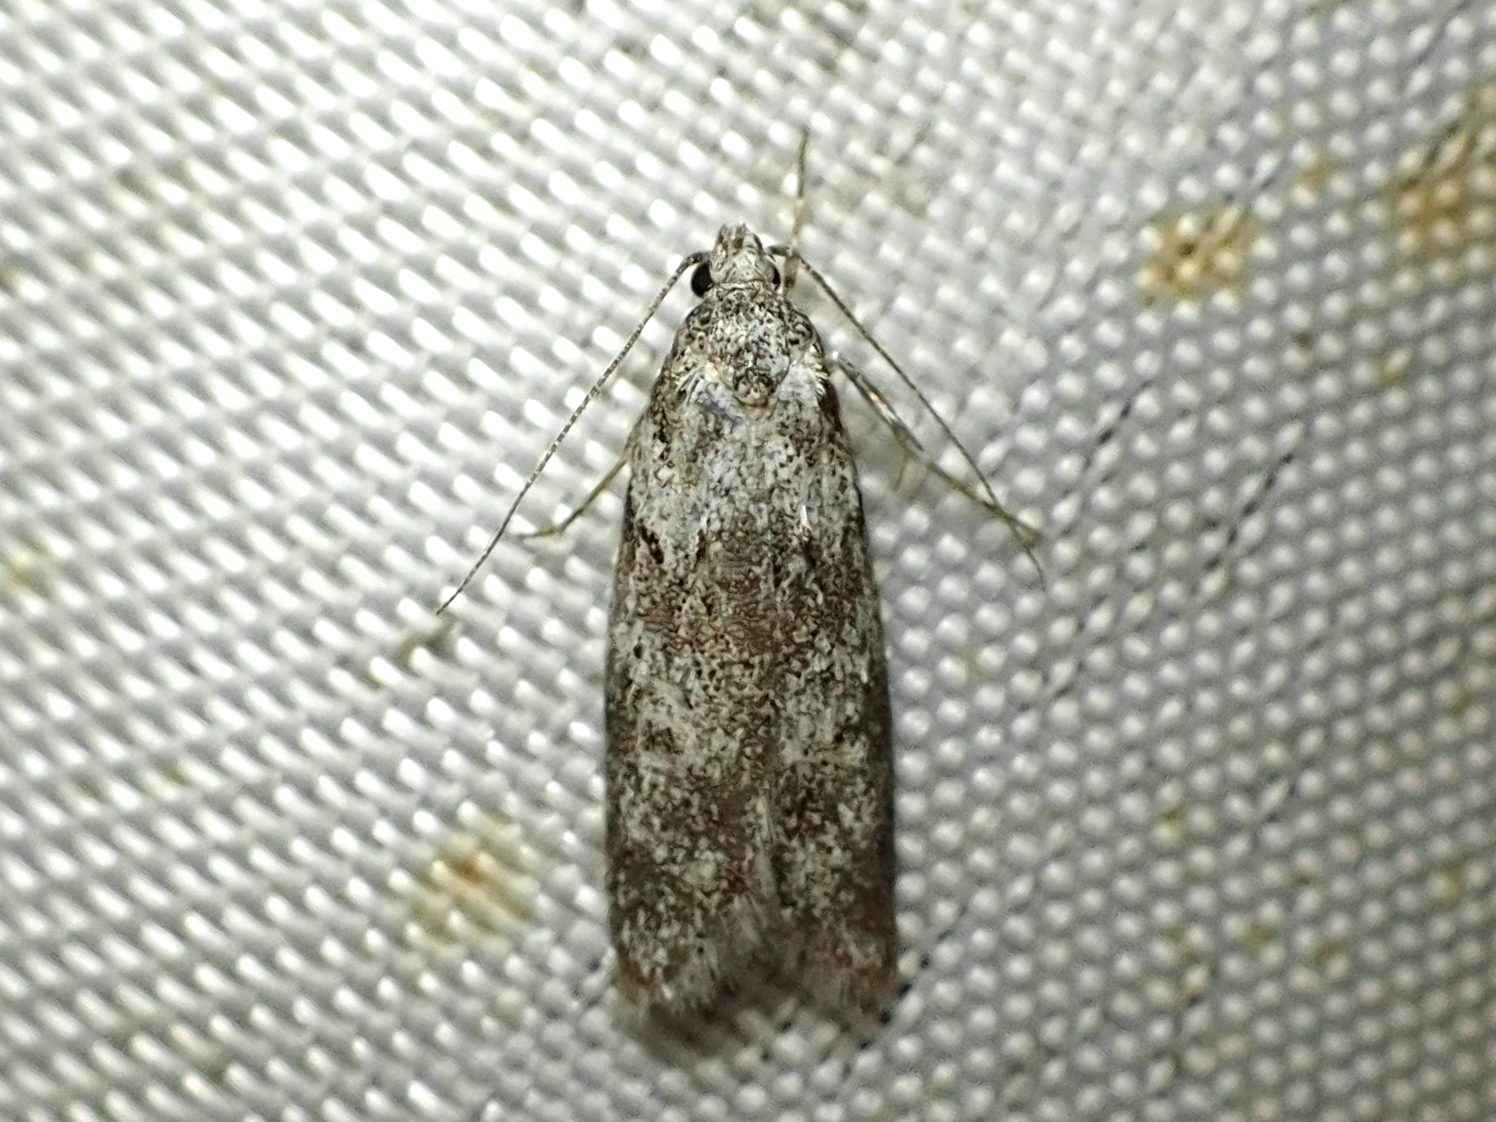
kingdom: Animalia
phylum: Arthropoda
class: Insecta
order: Lepidoptera
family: Oecophoridae
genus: Izatha
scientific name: Izatha convulsella
